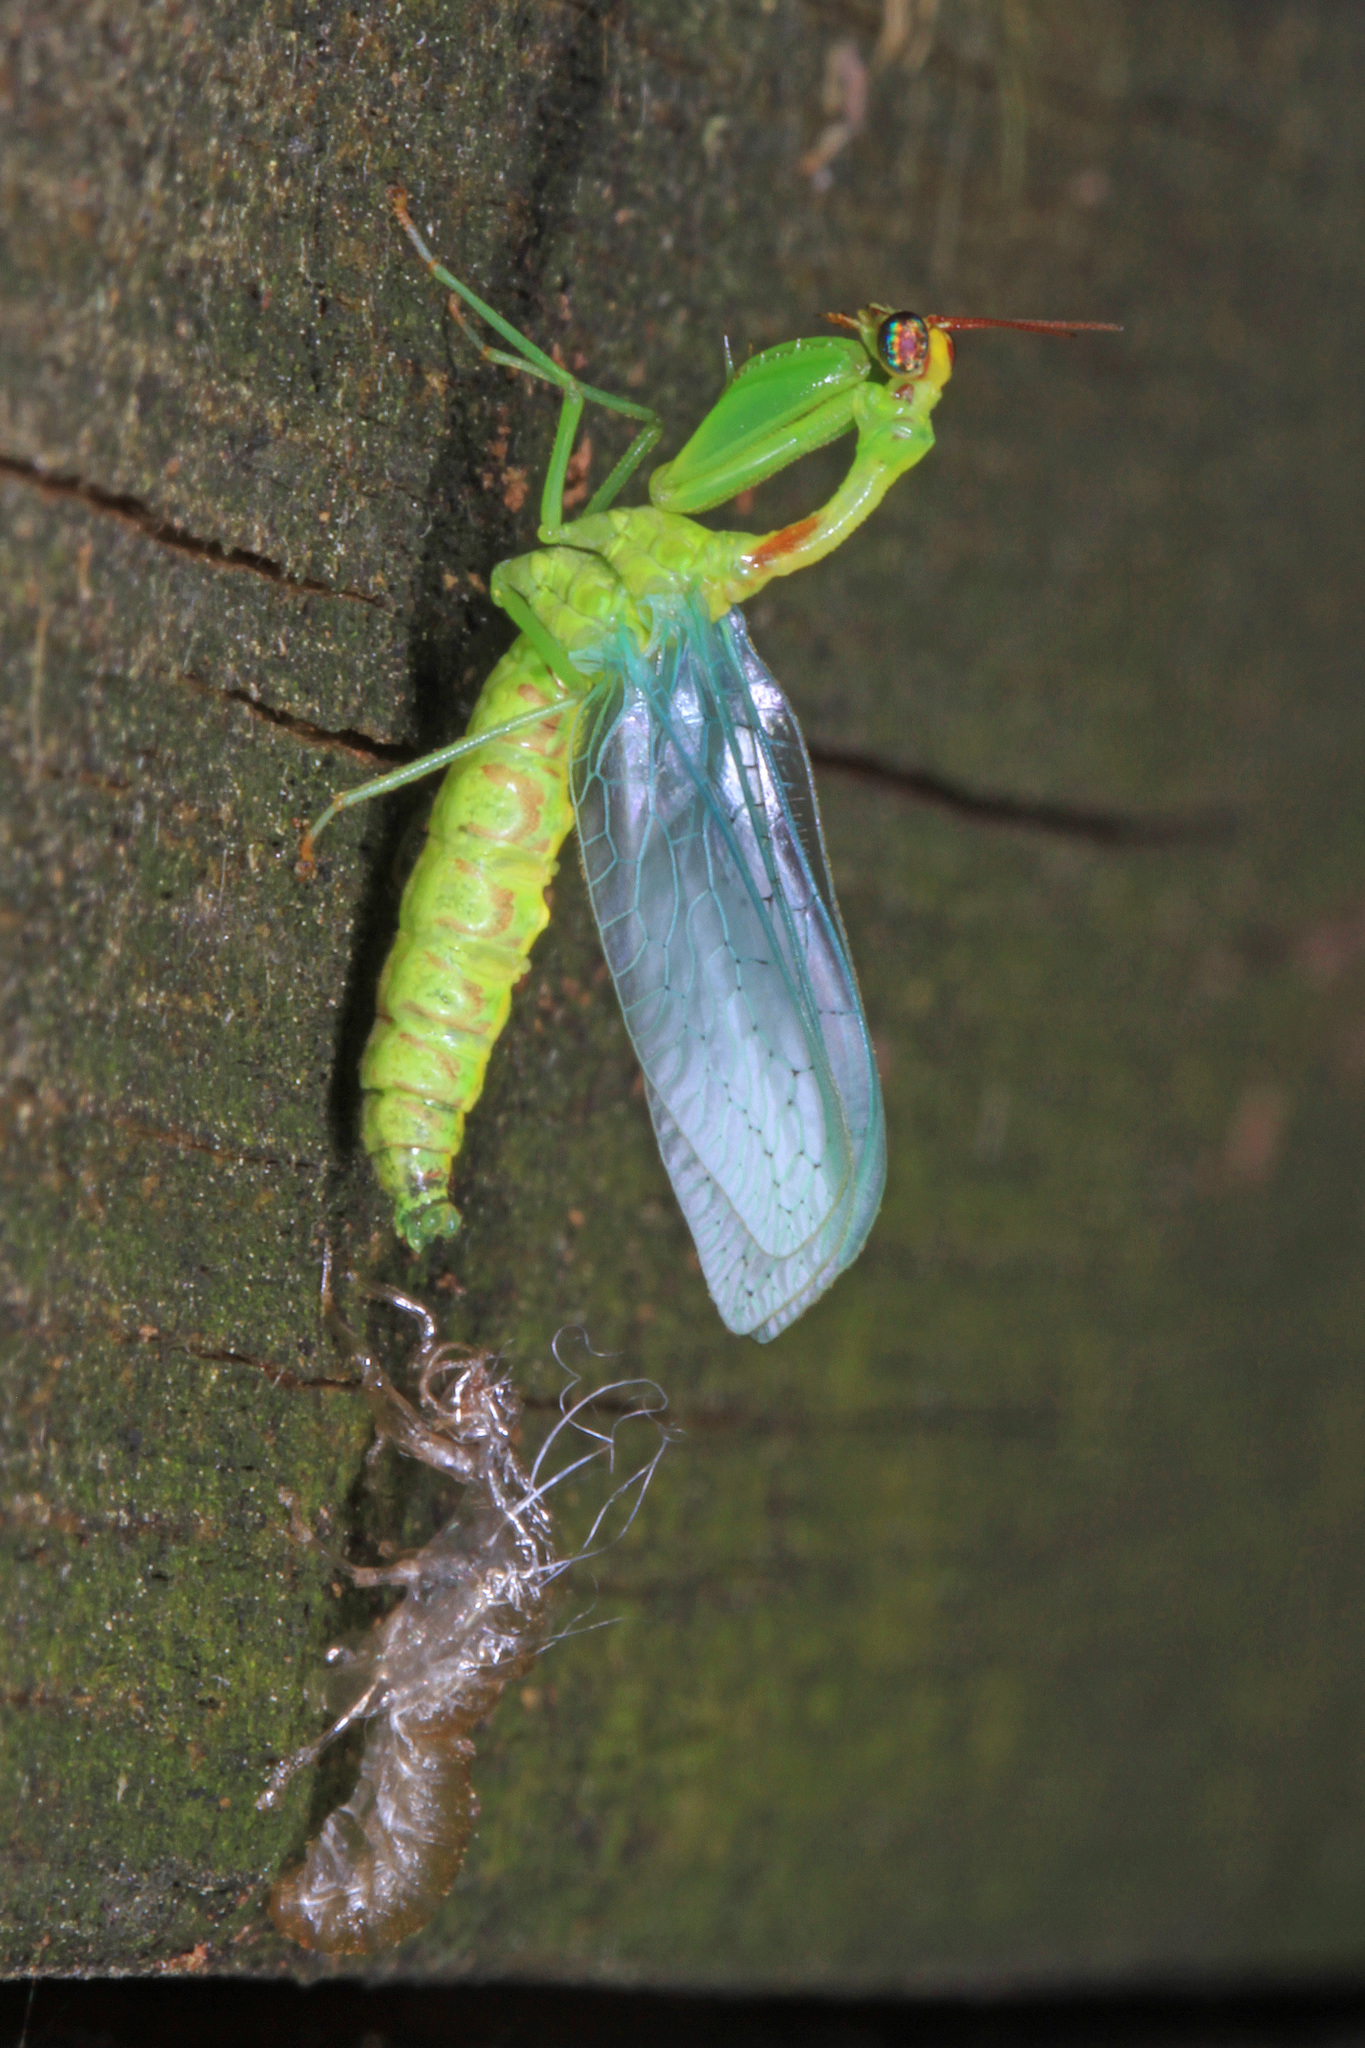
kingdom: Animalia
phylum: Arthropoda
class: Insecta
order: Neuroptera
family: Mantispidae
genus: Zeugomantispa
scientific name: Zeugomantispa minuta
